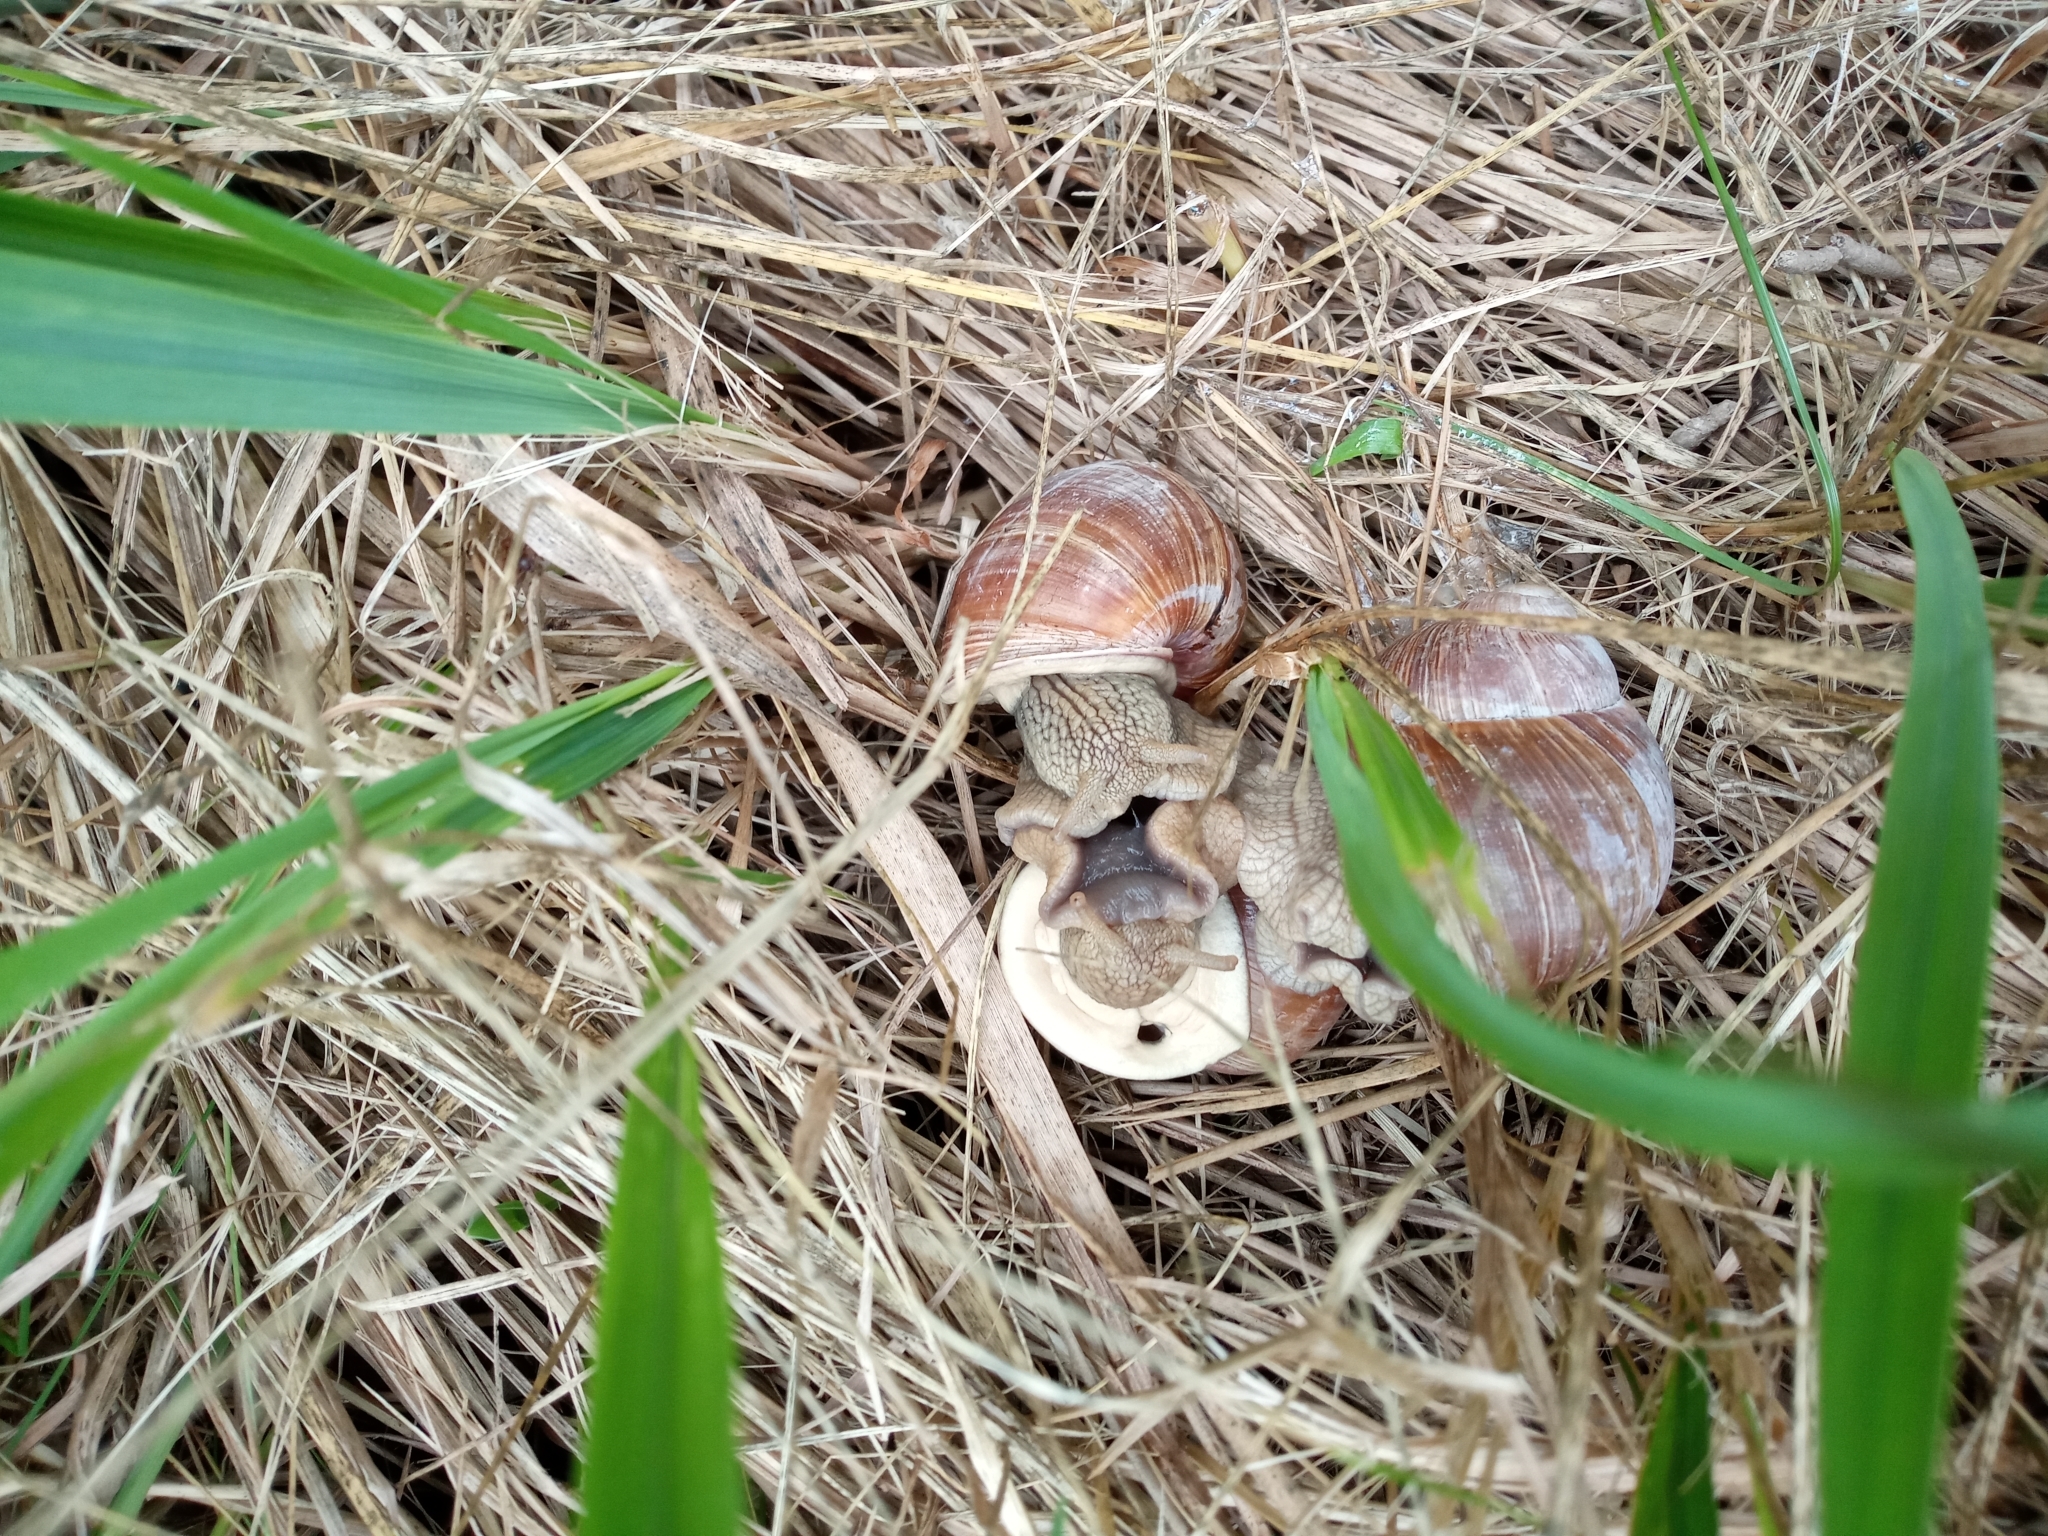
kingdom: Animalia
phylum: Mollusca
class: Gastropoda
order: Stylommatophora
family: Helicidae
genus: Helix
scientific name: Helix pomatia
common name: Roman snail
